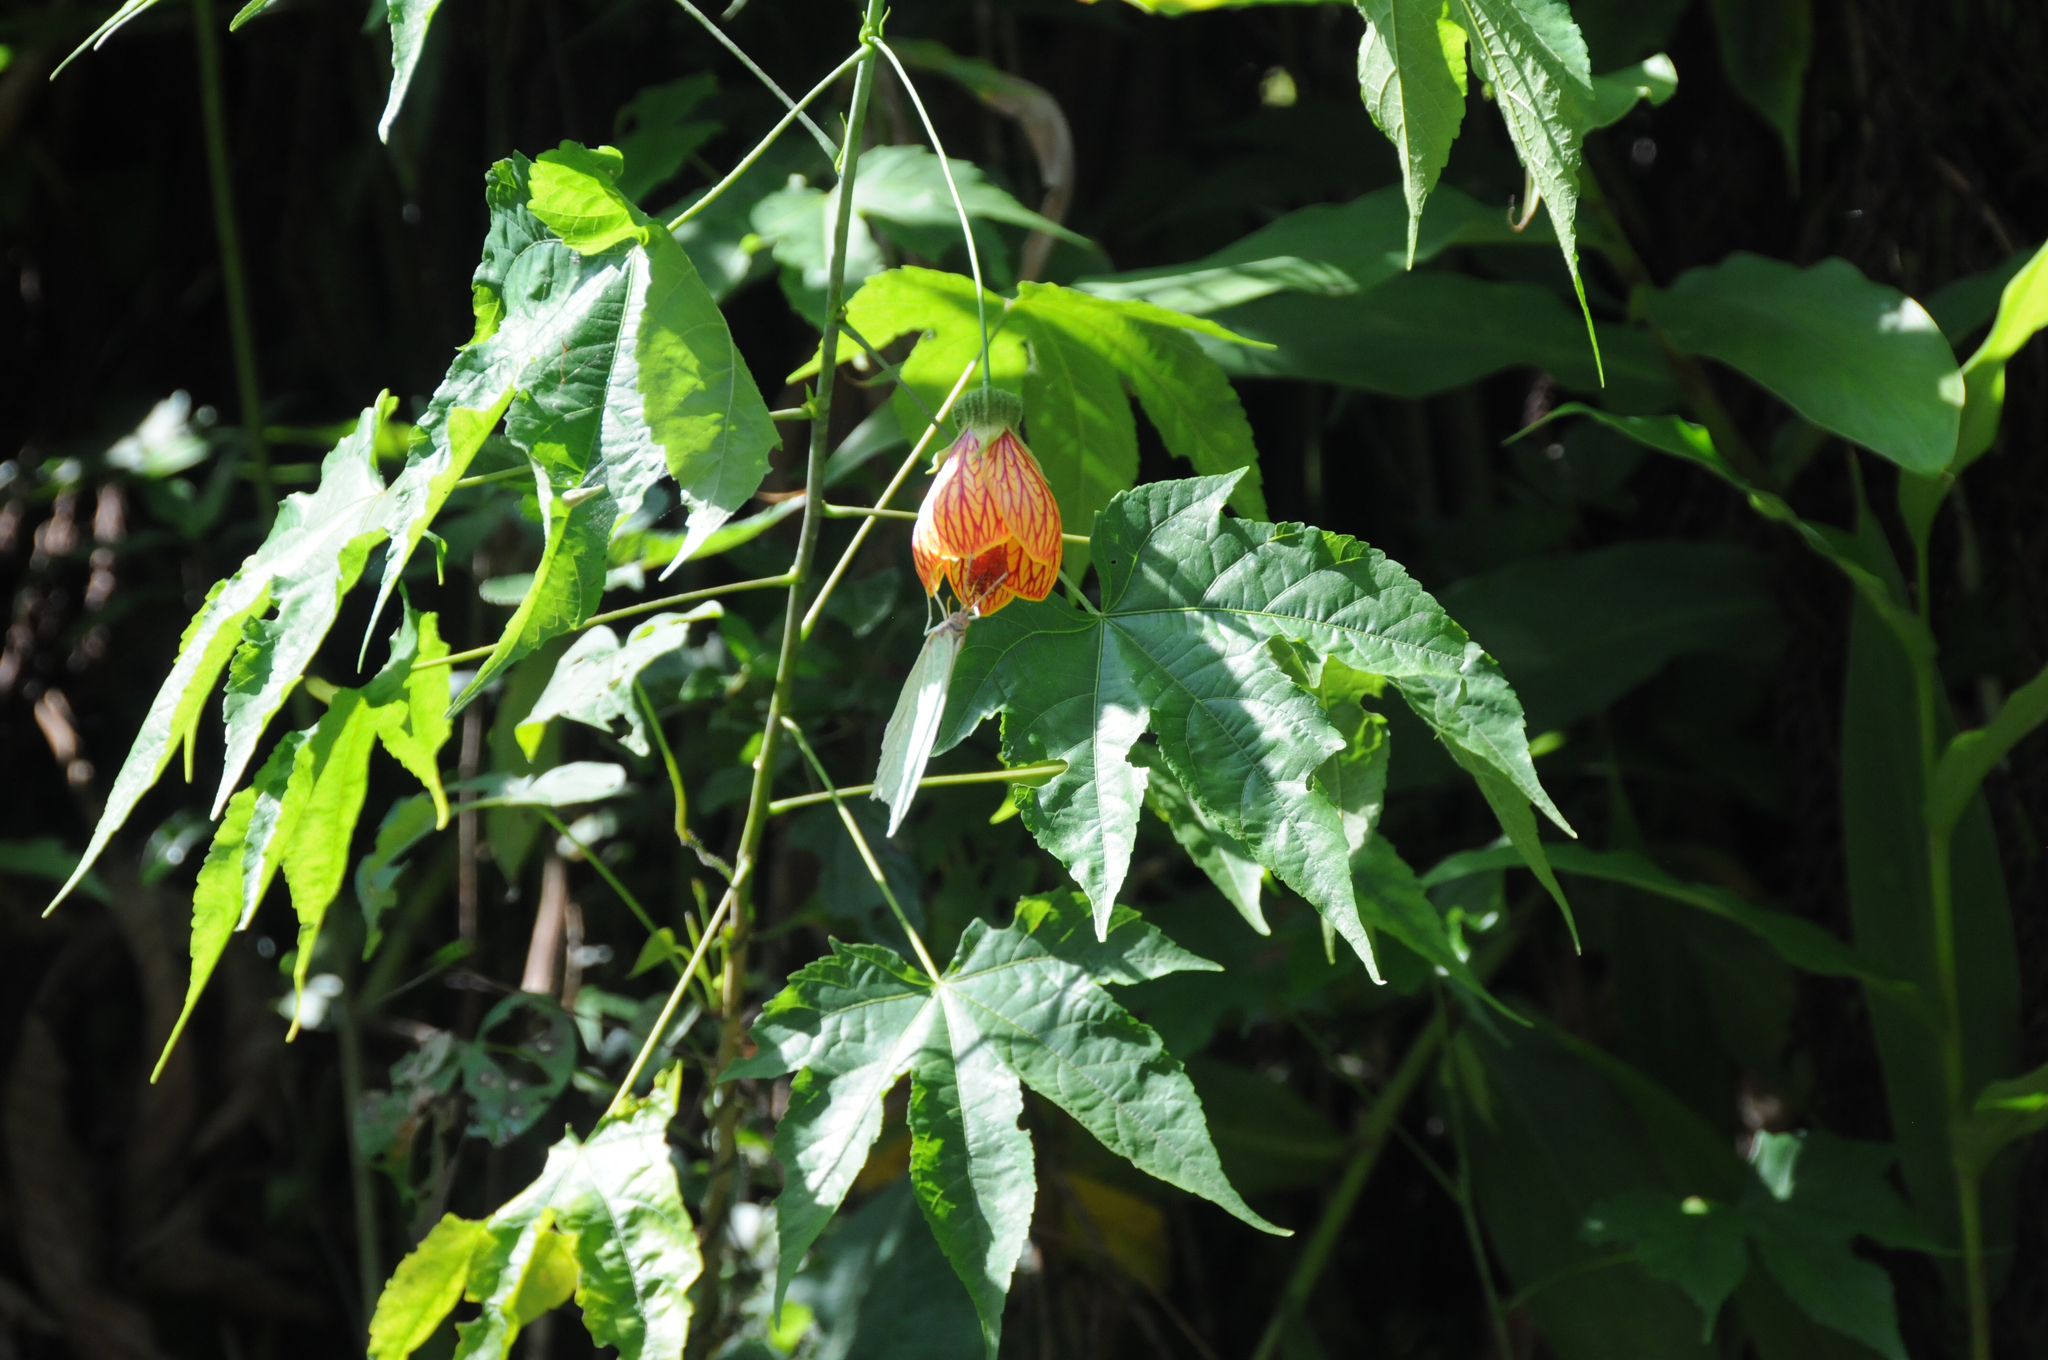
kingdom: Animalia
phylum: Arthropoda
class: Insecta
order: Lepidoptera
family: Pieridae
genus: Anteos
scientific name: Anteos clorinde
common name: White angled sulphur
